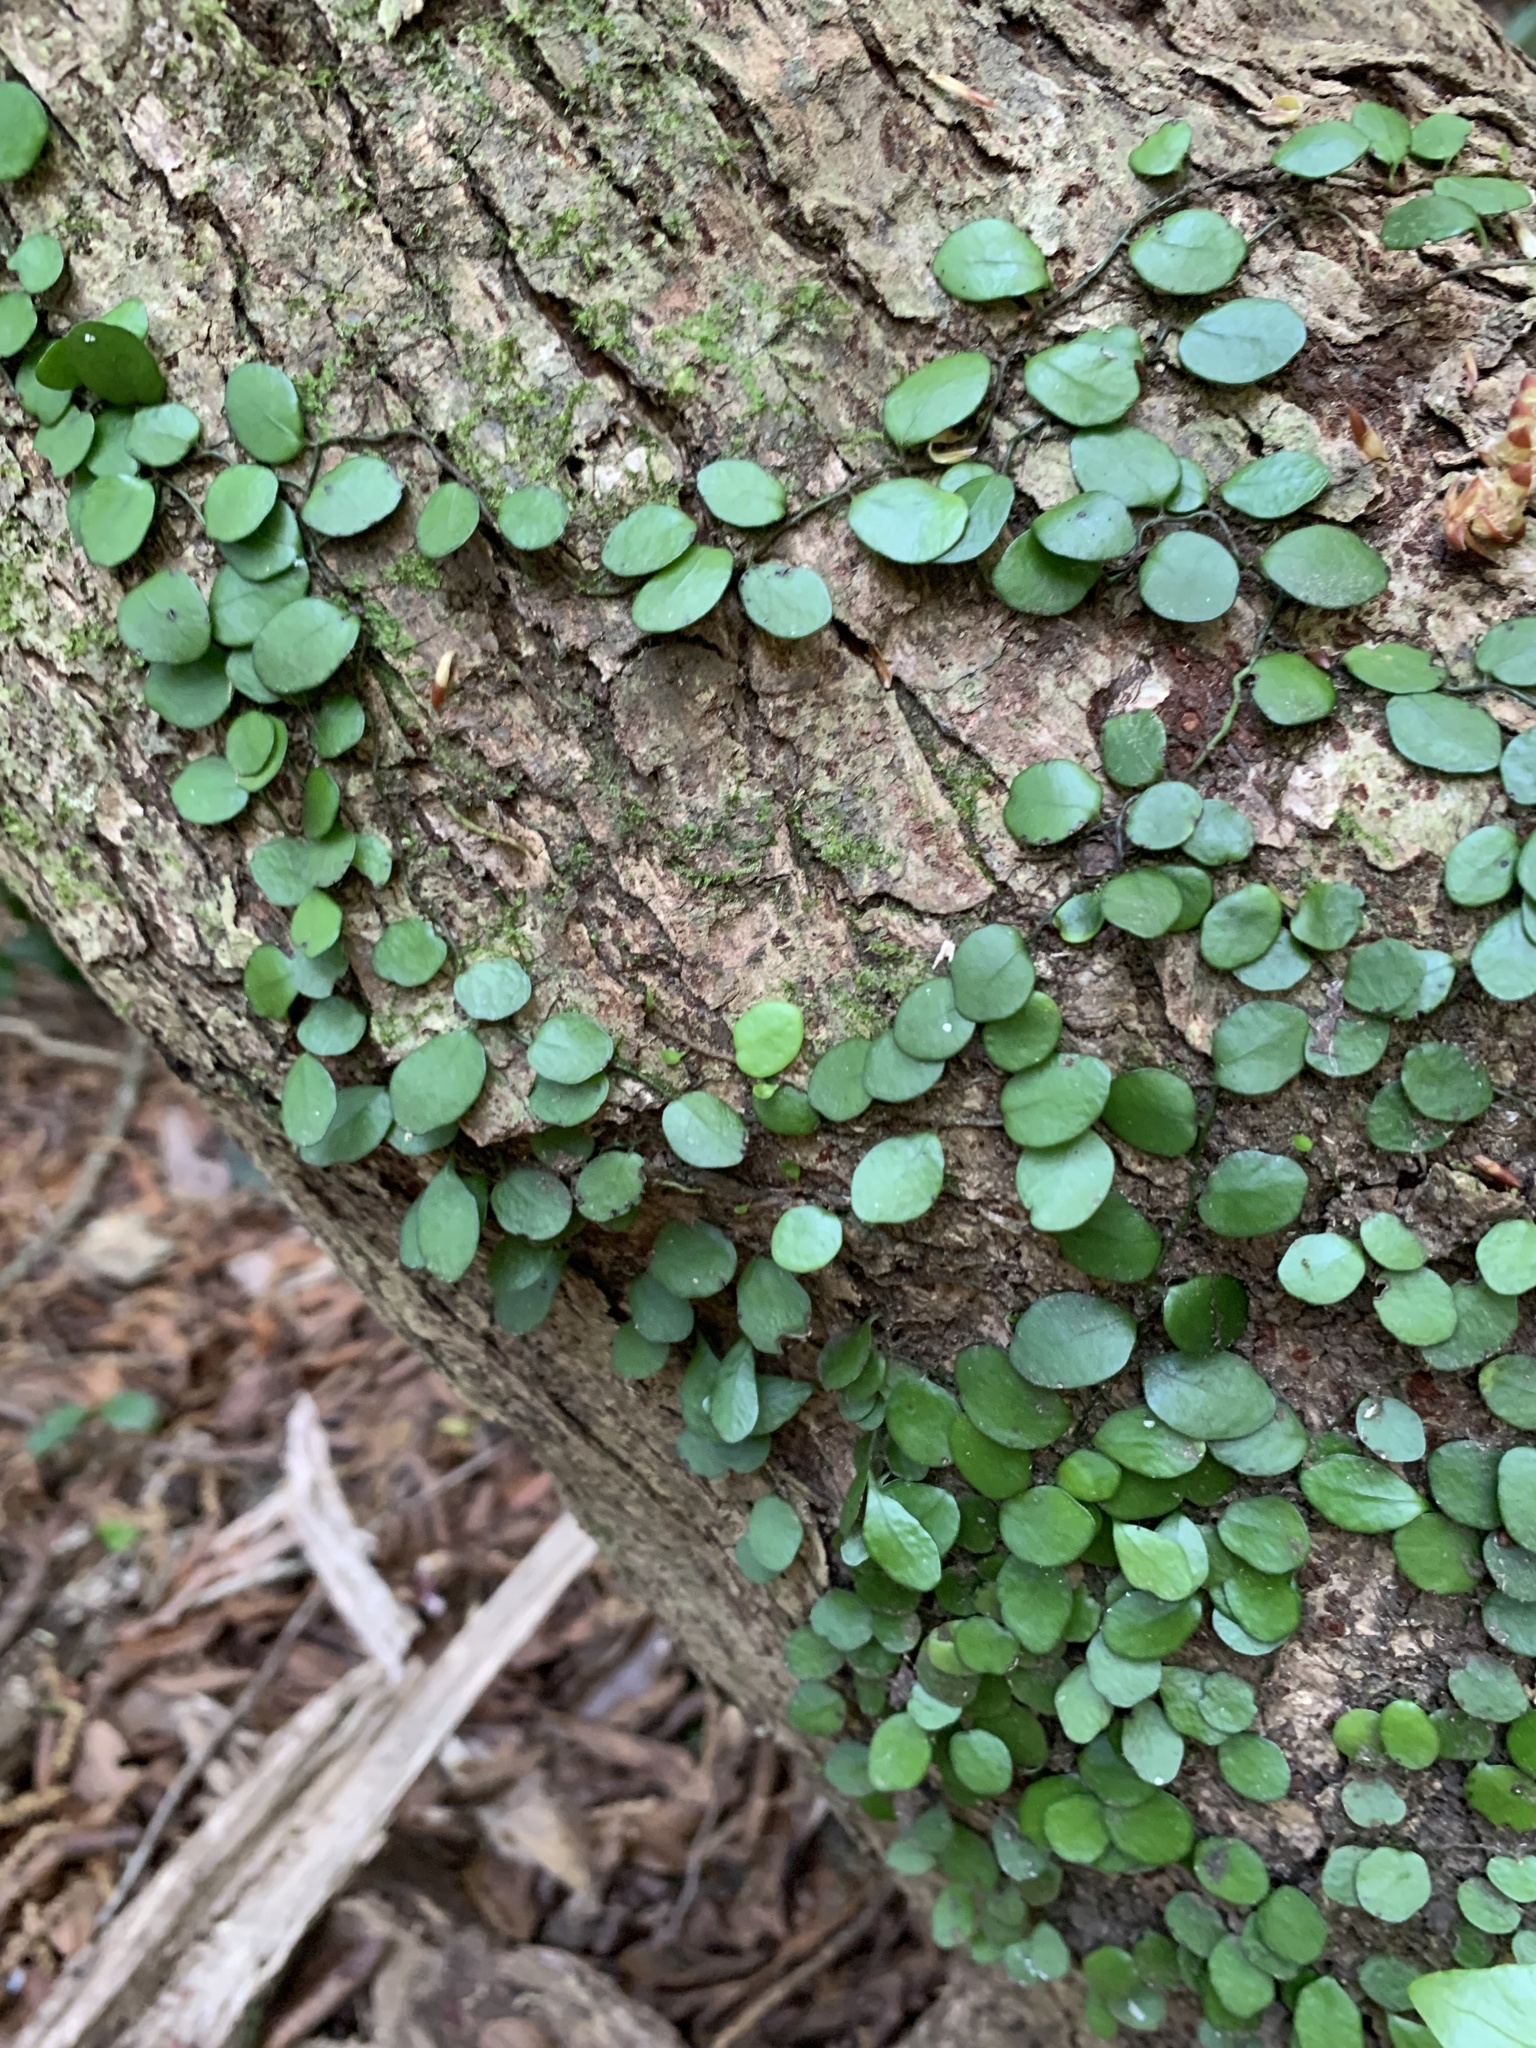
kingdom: Plantae
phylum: Tracheophyta
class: Polypodiopsida
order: Polypodiales
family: Polypodiaceae
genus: Lepisorus
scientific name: Lepisorus microphyllus
